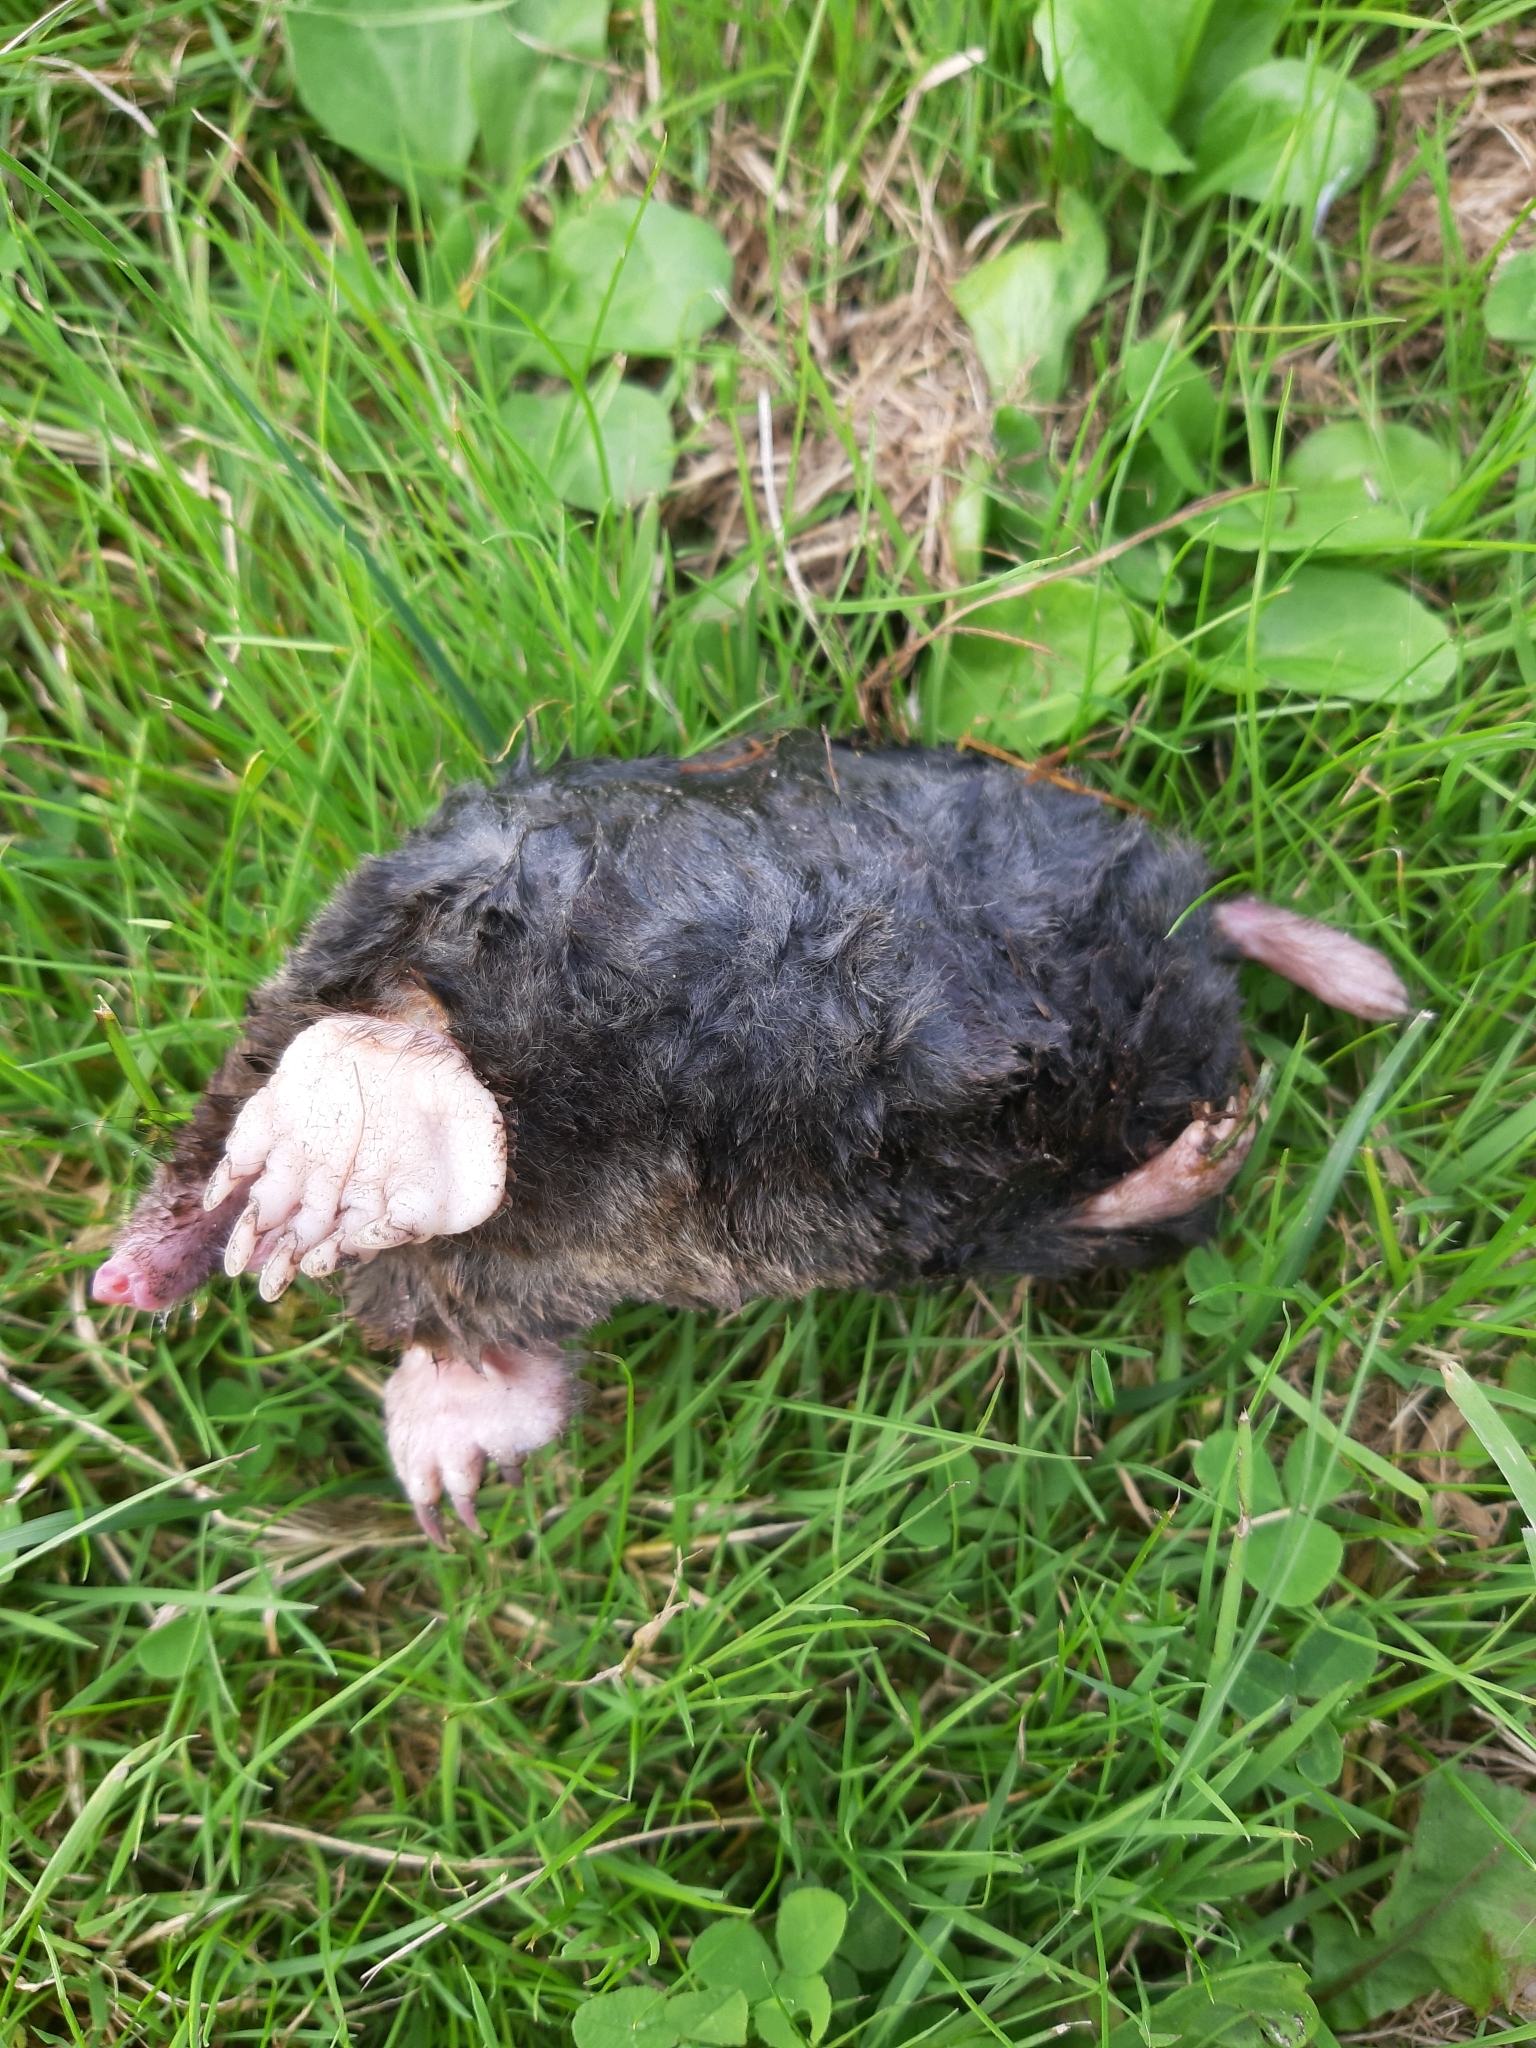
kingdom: Animalia
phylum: Chordata
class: Mammalia
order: Soricomorpha
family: Talpidae
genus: Talpa
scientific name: Talpa europaea
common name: European mole
